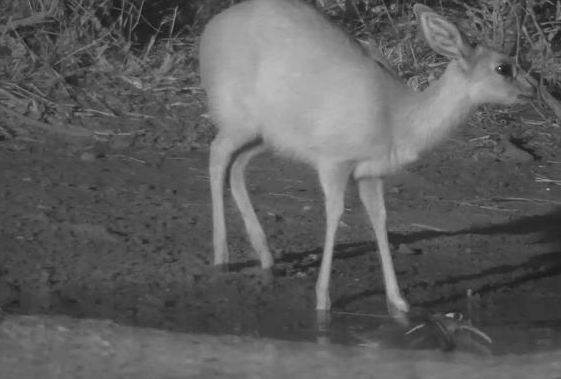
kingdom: Animalia
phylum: Chordata
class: Aves
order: Charadriiformes
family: Rostratulidae
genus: Rostratula
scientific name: Rostratula benghalensis
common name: Greater painted-snipe
